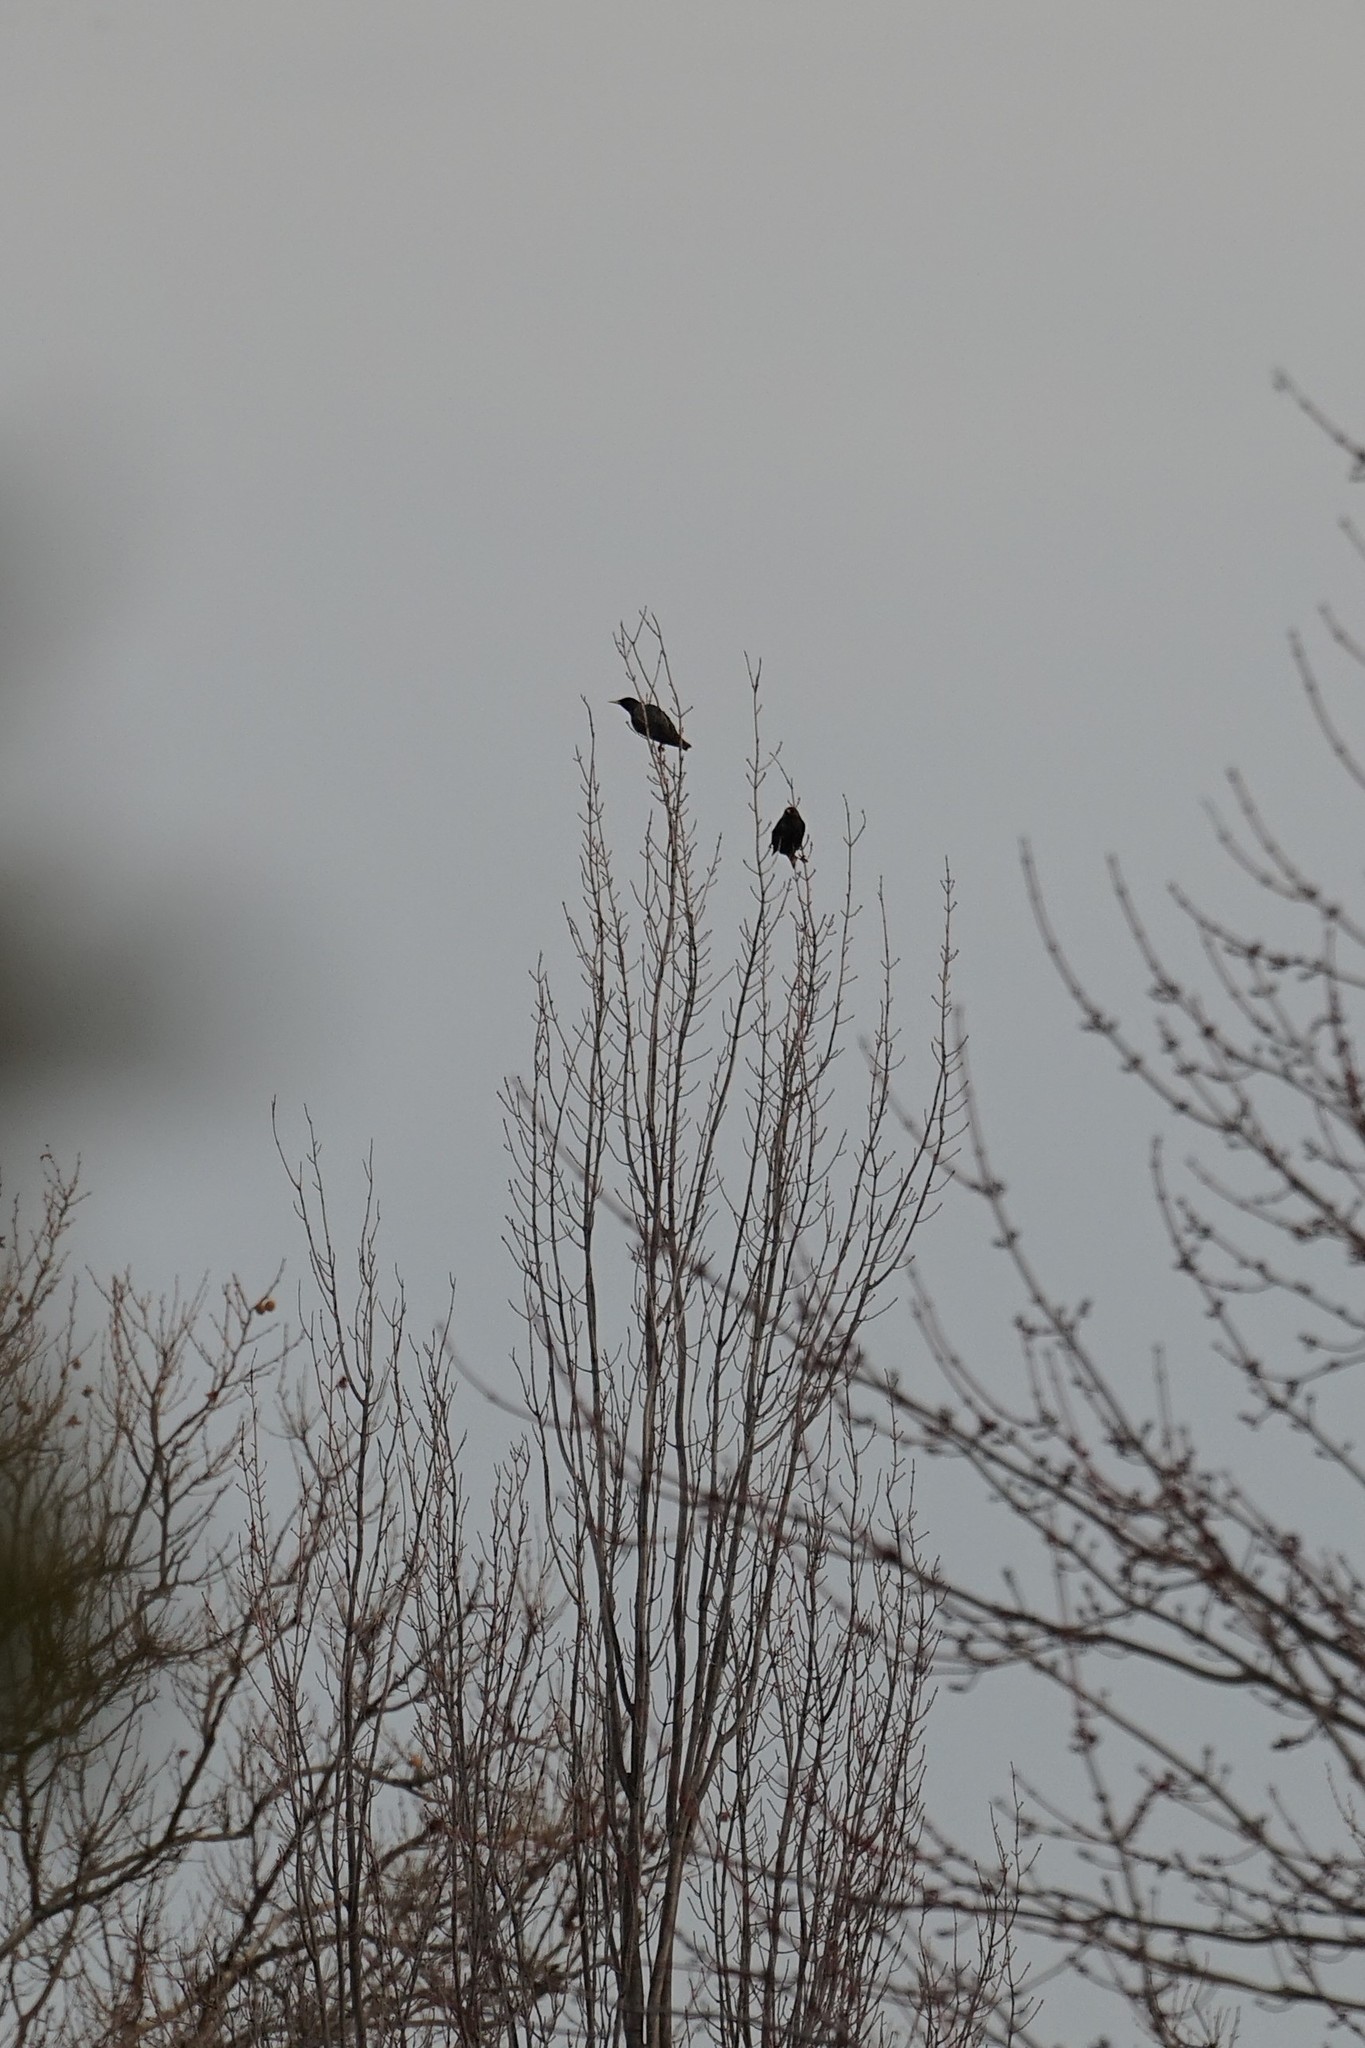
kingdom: Animalia
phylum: Chordata
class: Aves
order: Passeriformes
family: Sturnidae
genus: Sturnus
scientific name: Sturnus vulgaris
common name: Common starling
